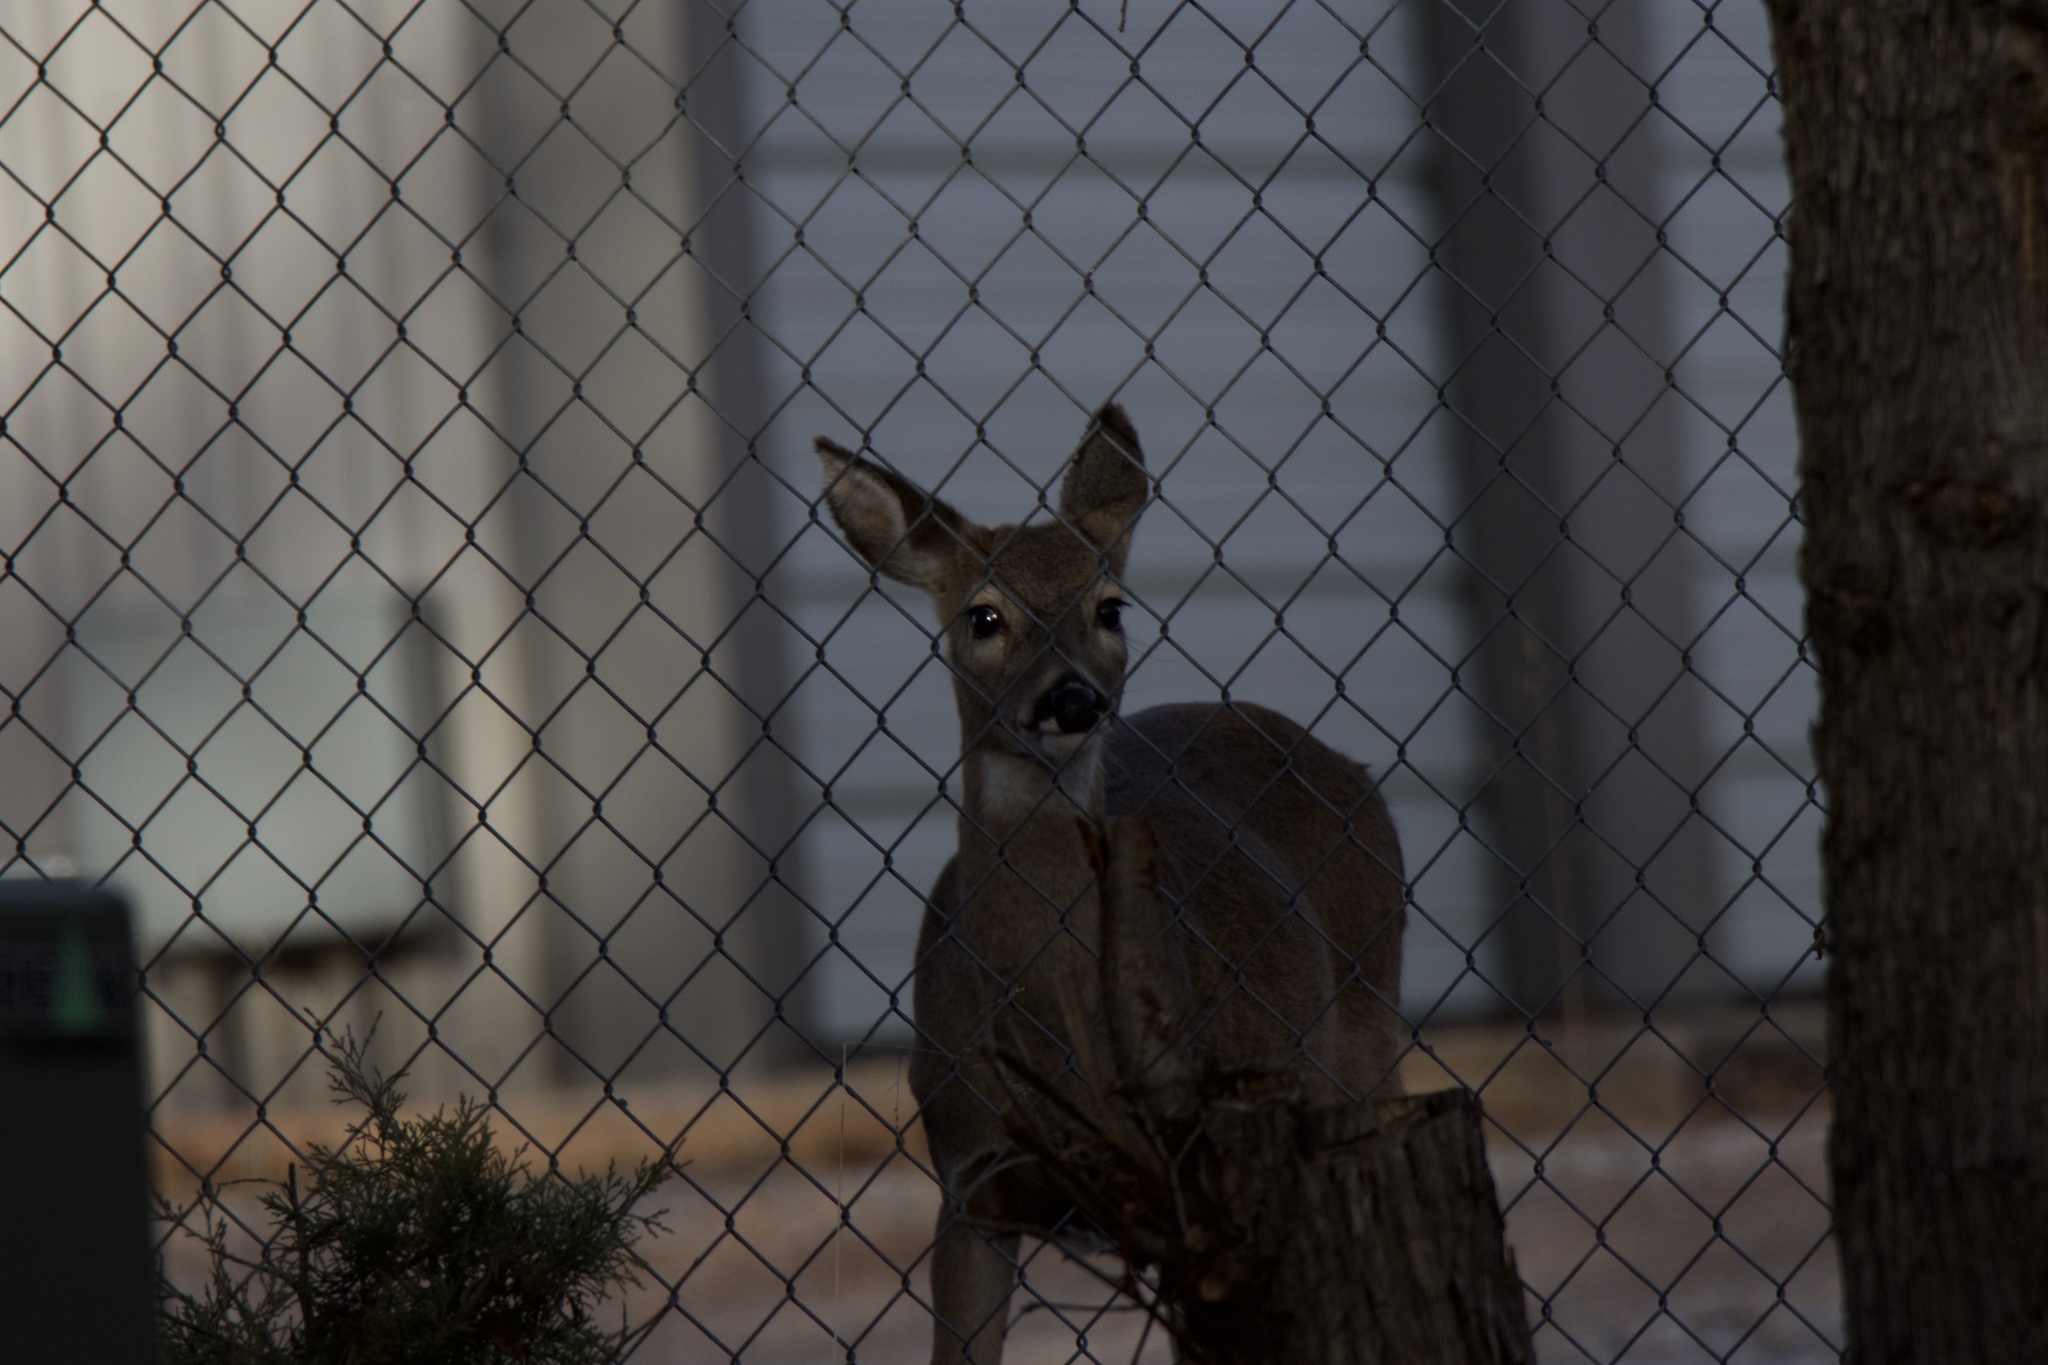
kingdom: Animalia
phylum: Chordata
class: Mammalia
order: Artiodactyla
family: Cervidae
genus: Odocoileus
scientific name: Odocoileus virginianus
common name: White-tailed deer
